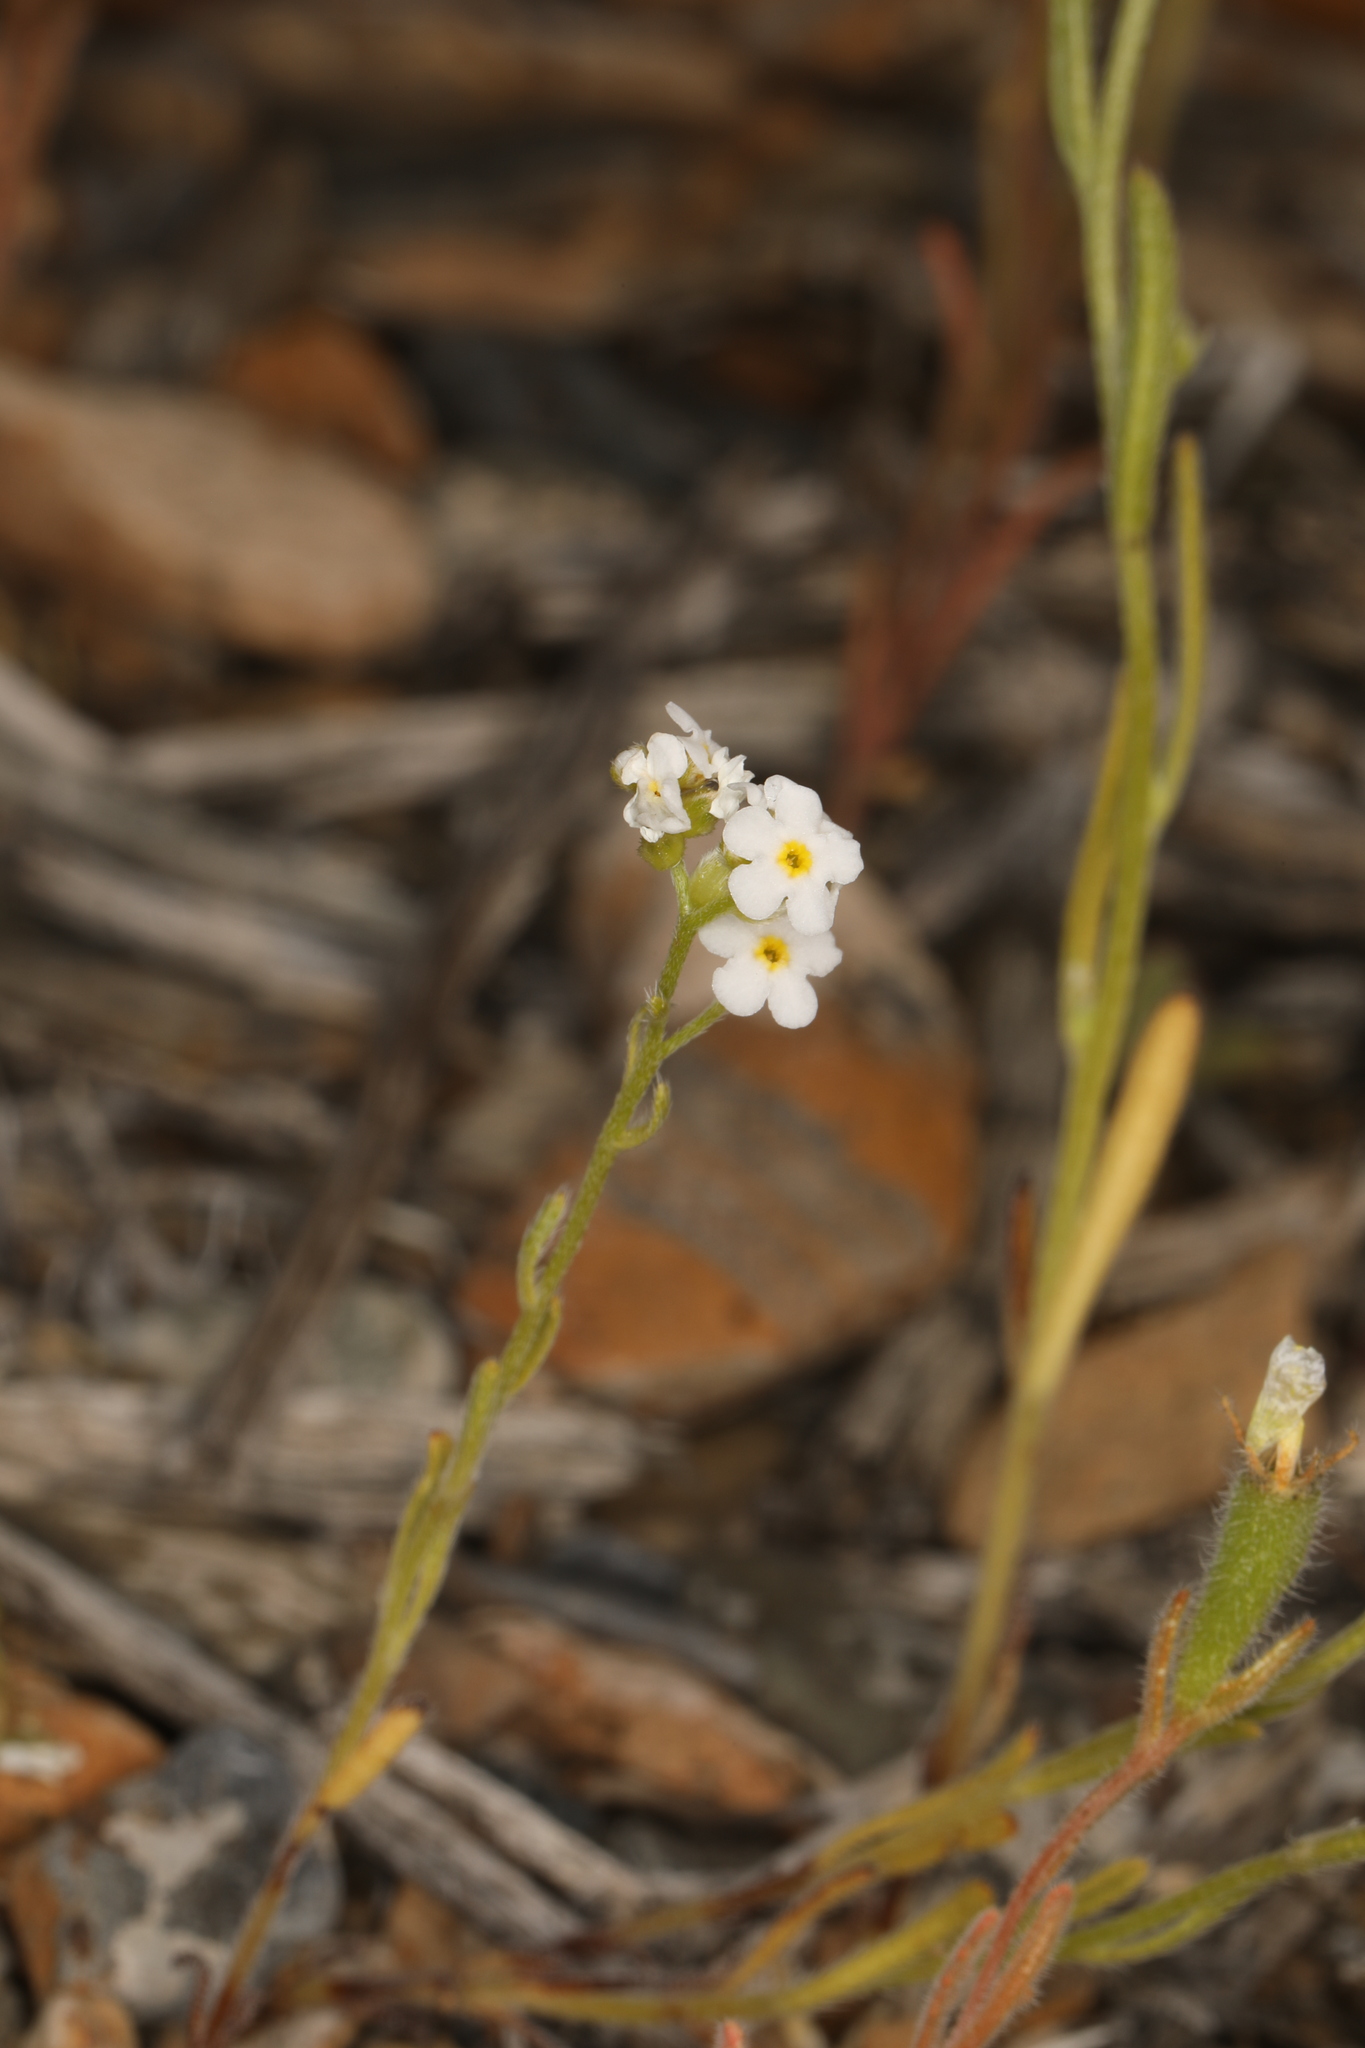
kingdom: Plantae
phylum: Tracheophyta
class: Magnoliopsida
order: Boraginales
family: Boraginaceae
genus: Cryptantha
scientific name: Cryptantha utahensis
